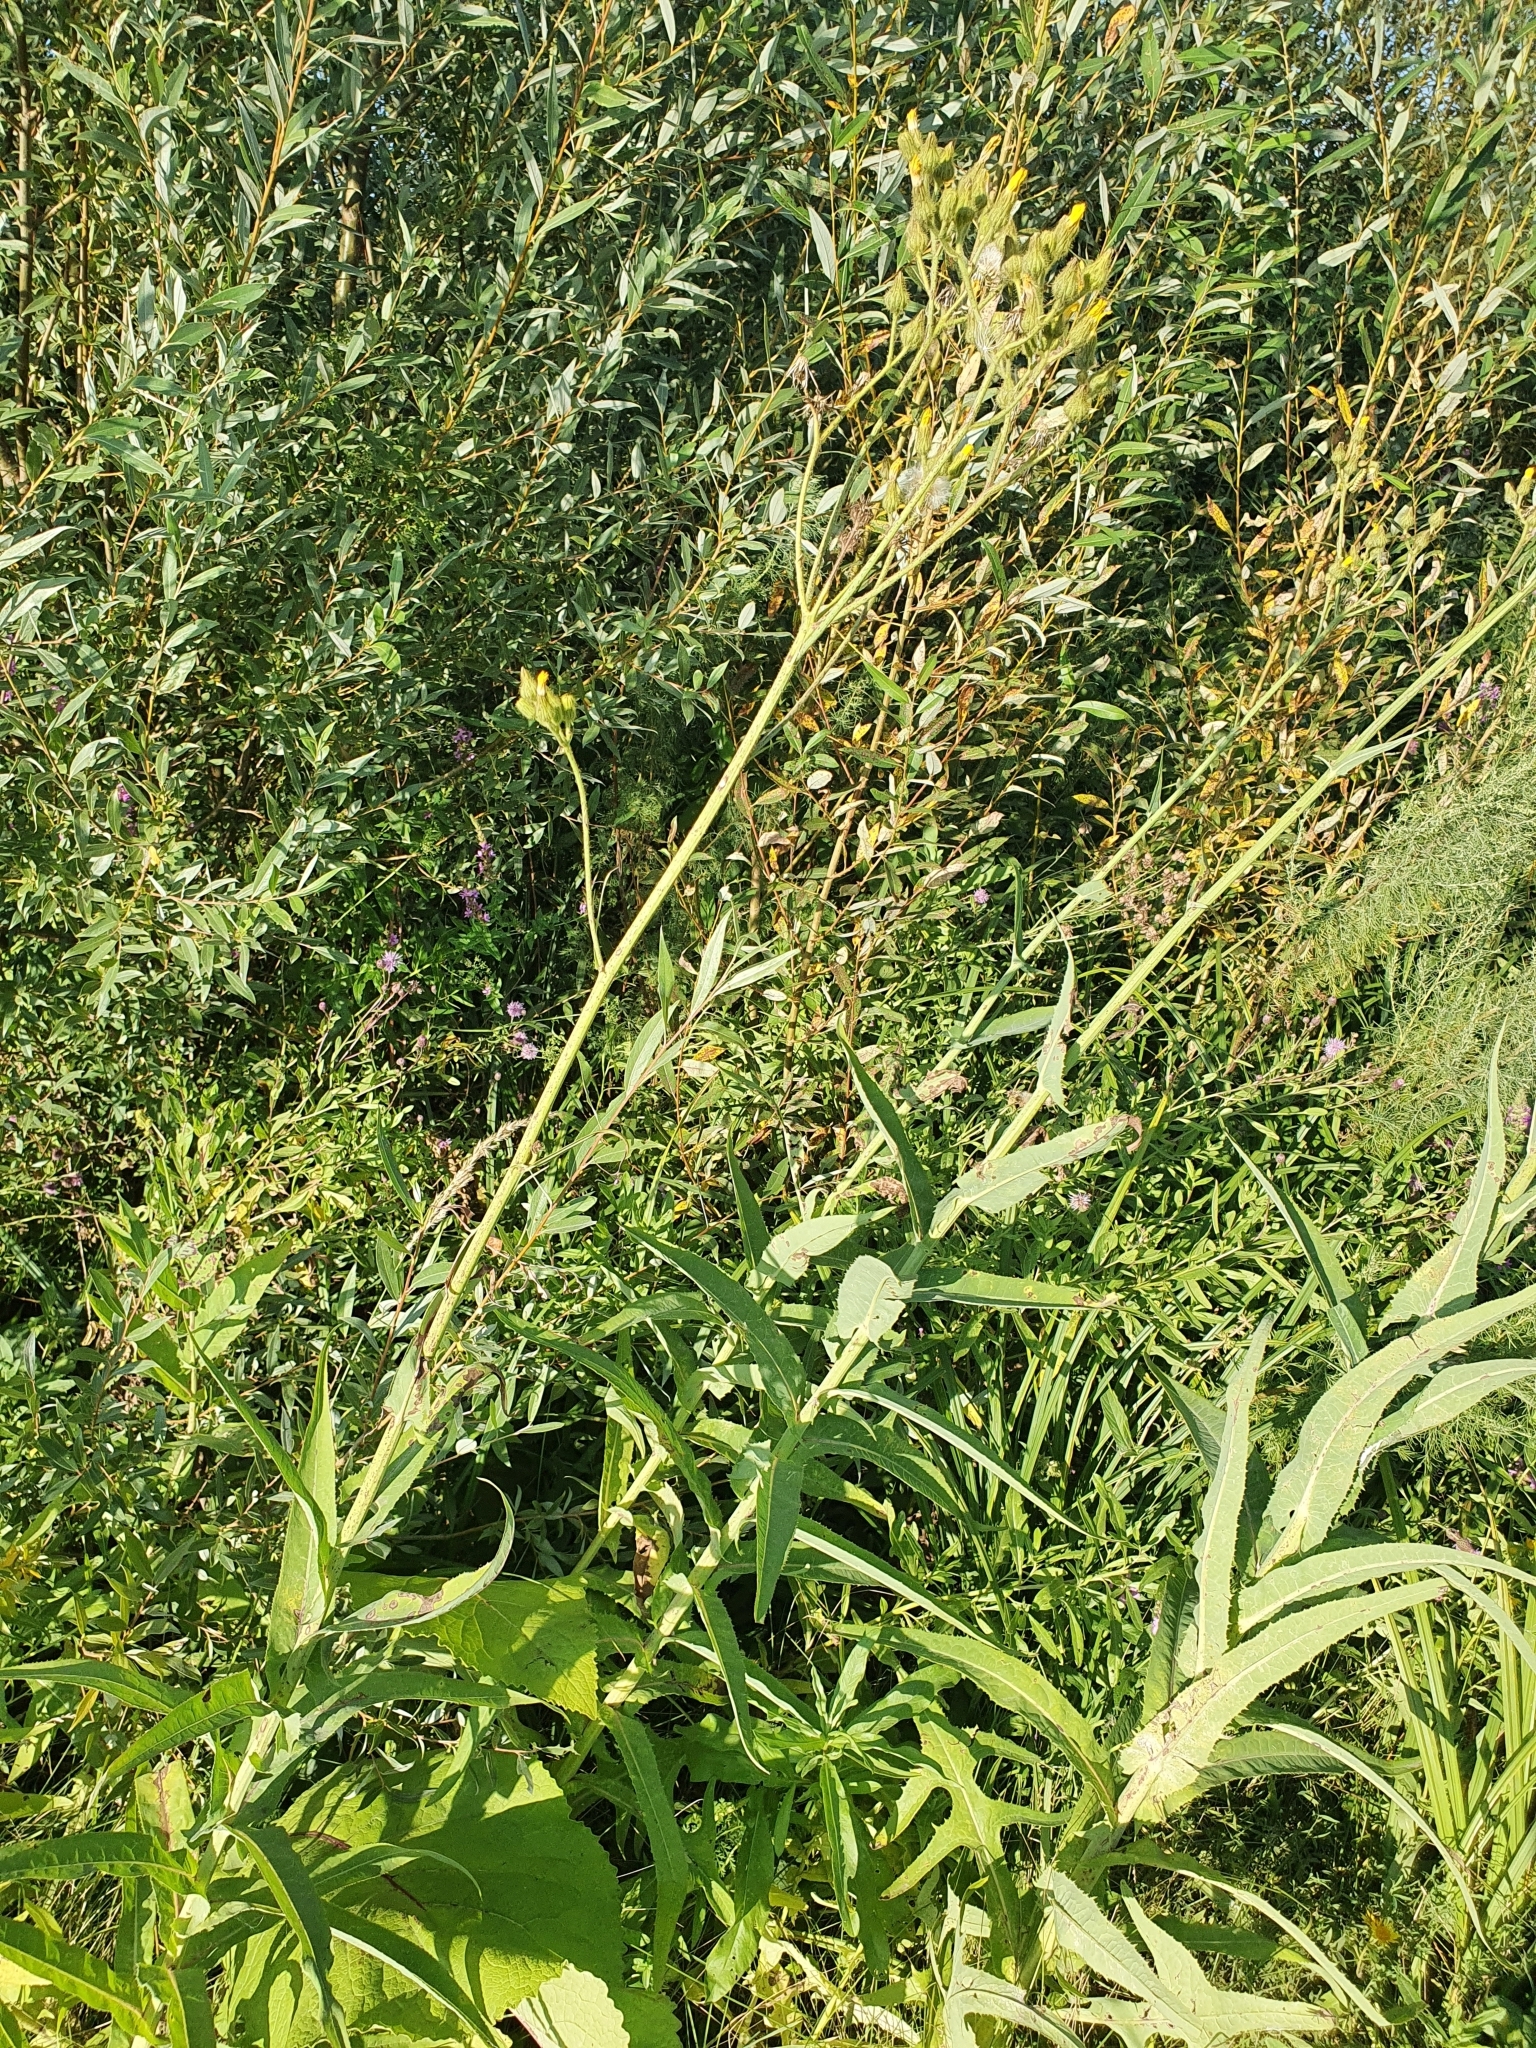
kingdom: Plantae
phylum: Tracheophyta
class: Magnoliopsida
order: Asterales
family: Asteraceae
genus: Sonchus
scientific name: Sonchus palustris
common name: Marsh sow-thistle
